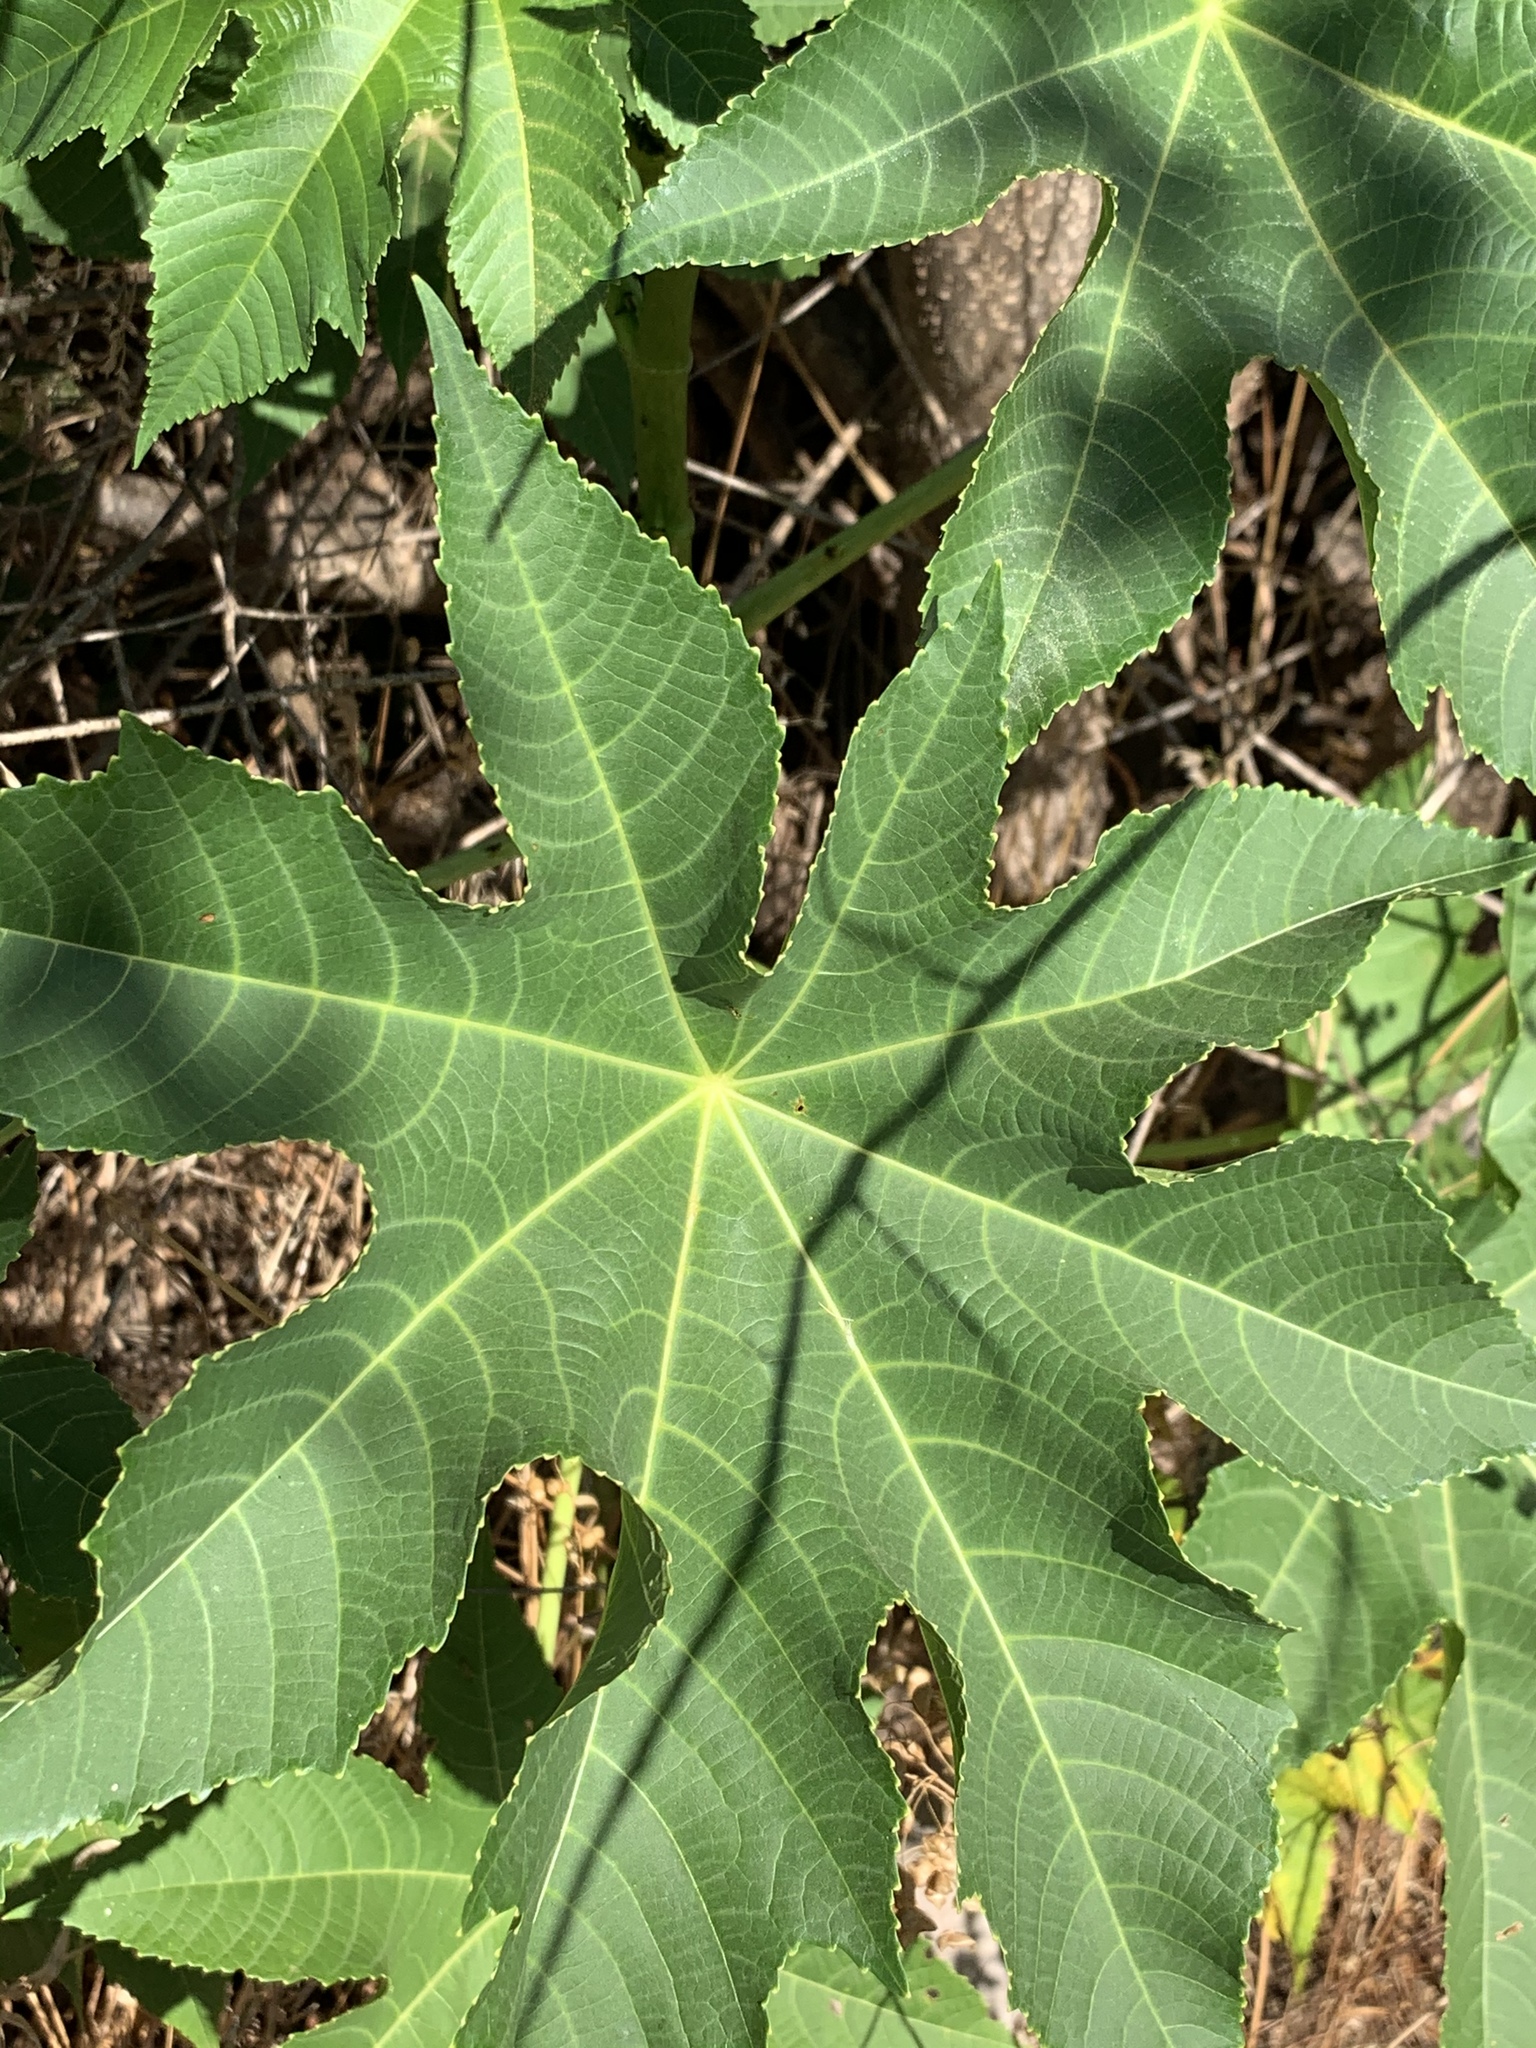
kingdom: Plantae
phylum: Tracheophyta
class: Magnoliopsida
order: Malpighiales
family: Euphorbiaceae
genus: Ricinus
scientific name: Ricinus communis
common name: Castor-oil-plant
